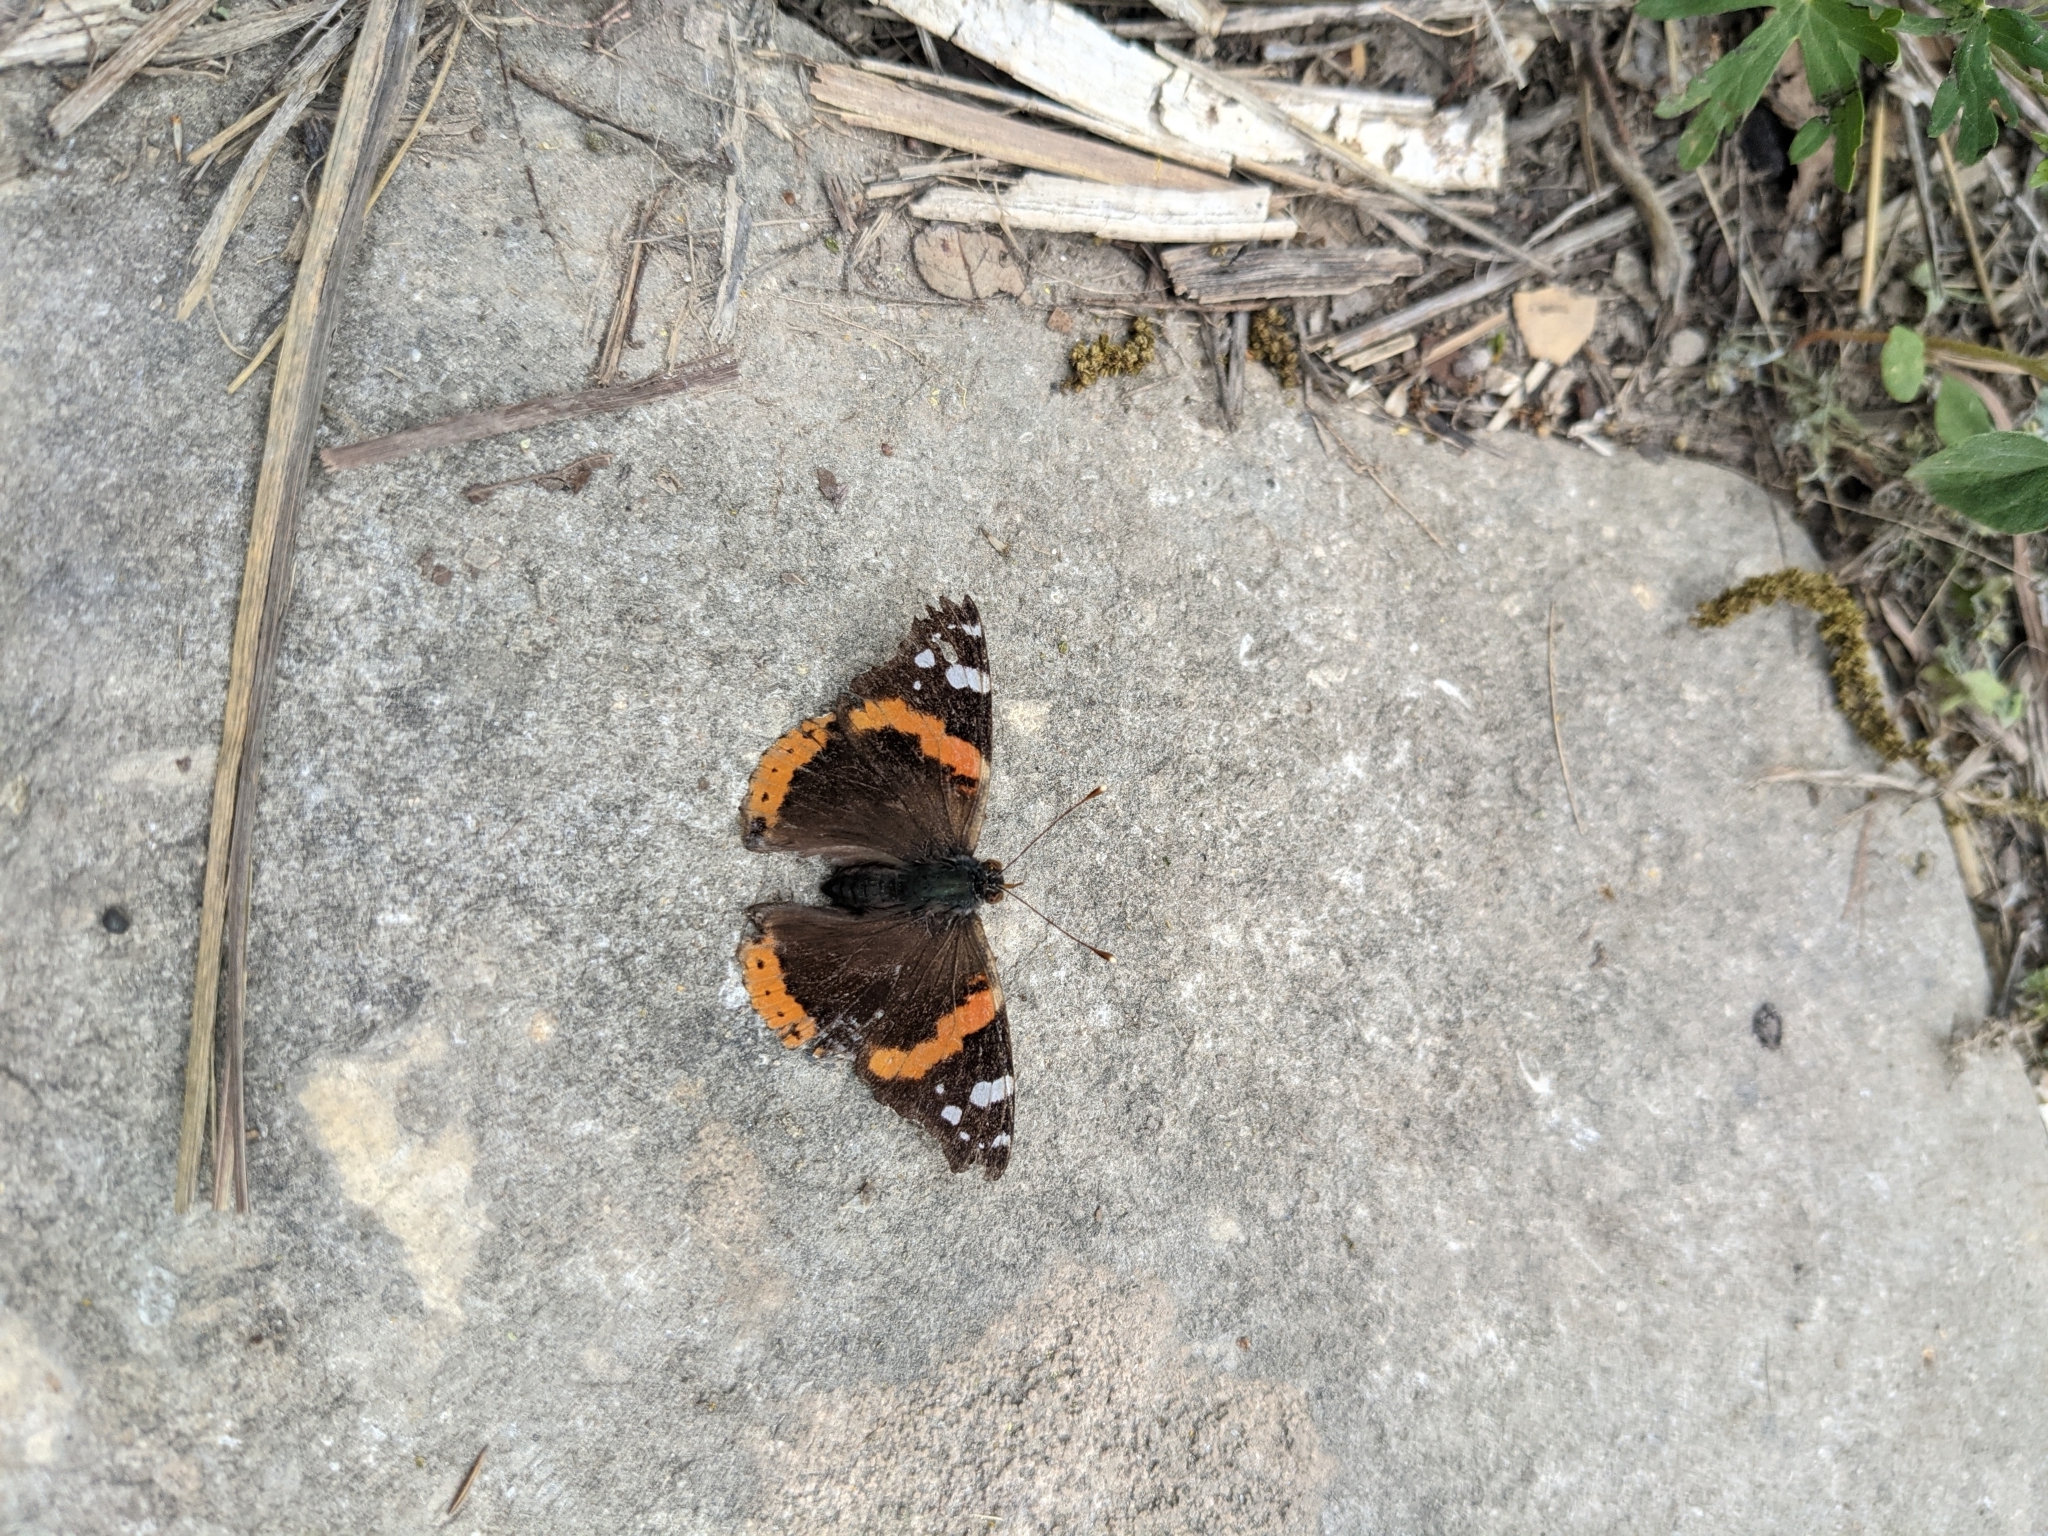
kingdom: Animalia
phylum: Arthropoda
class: Insecta
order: Lepidoptera
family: Nymphalidae
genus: Vanessa
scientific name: Vanessa atalanta
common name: Red admiral
